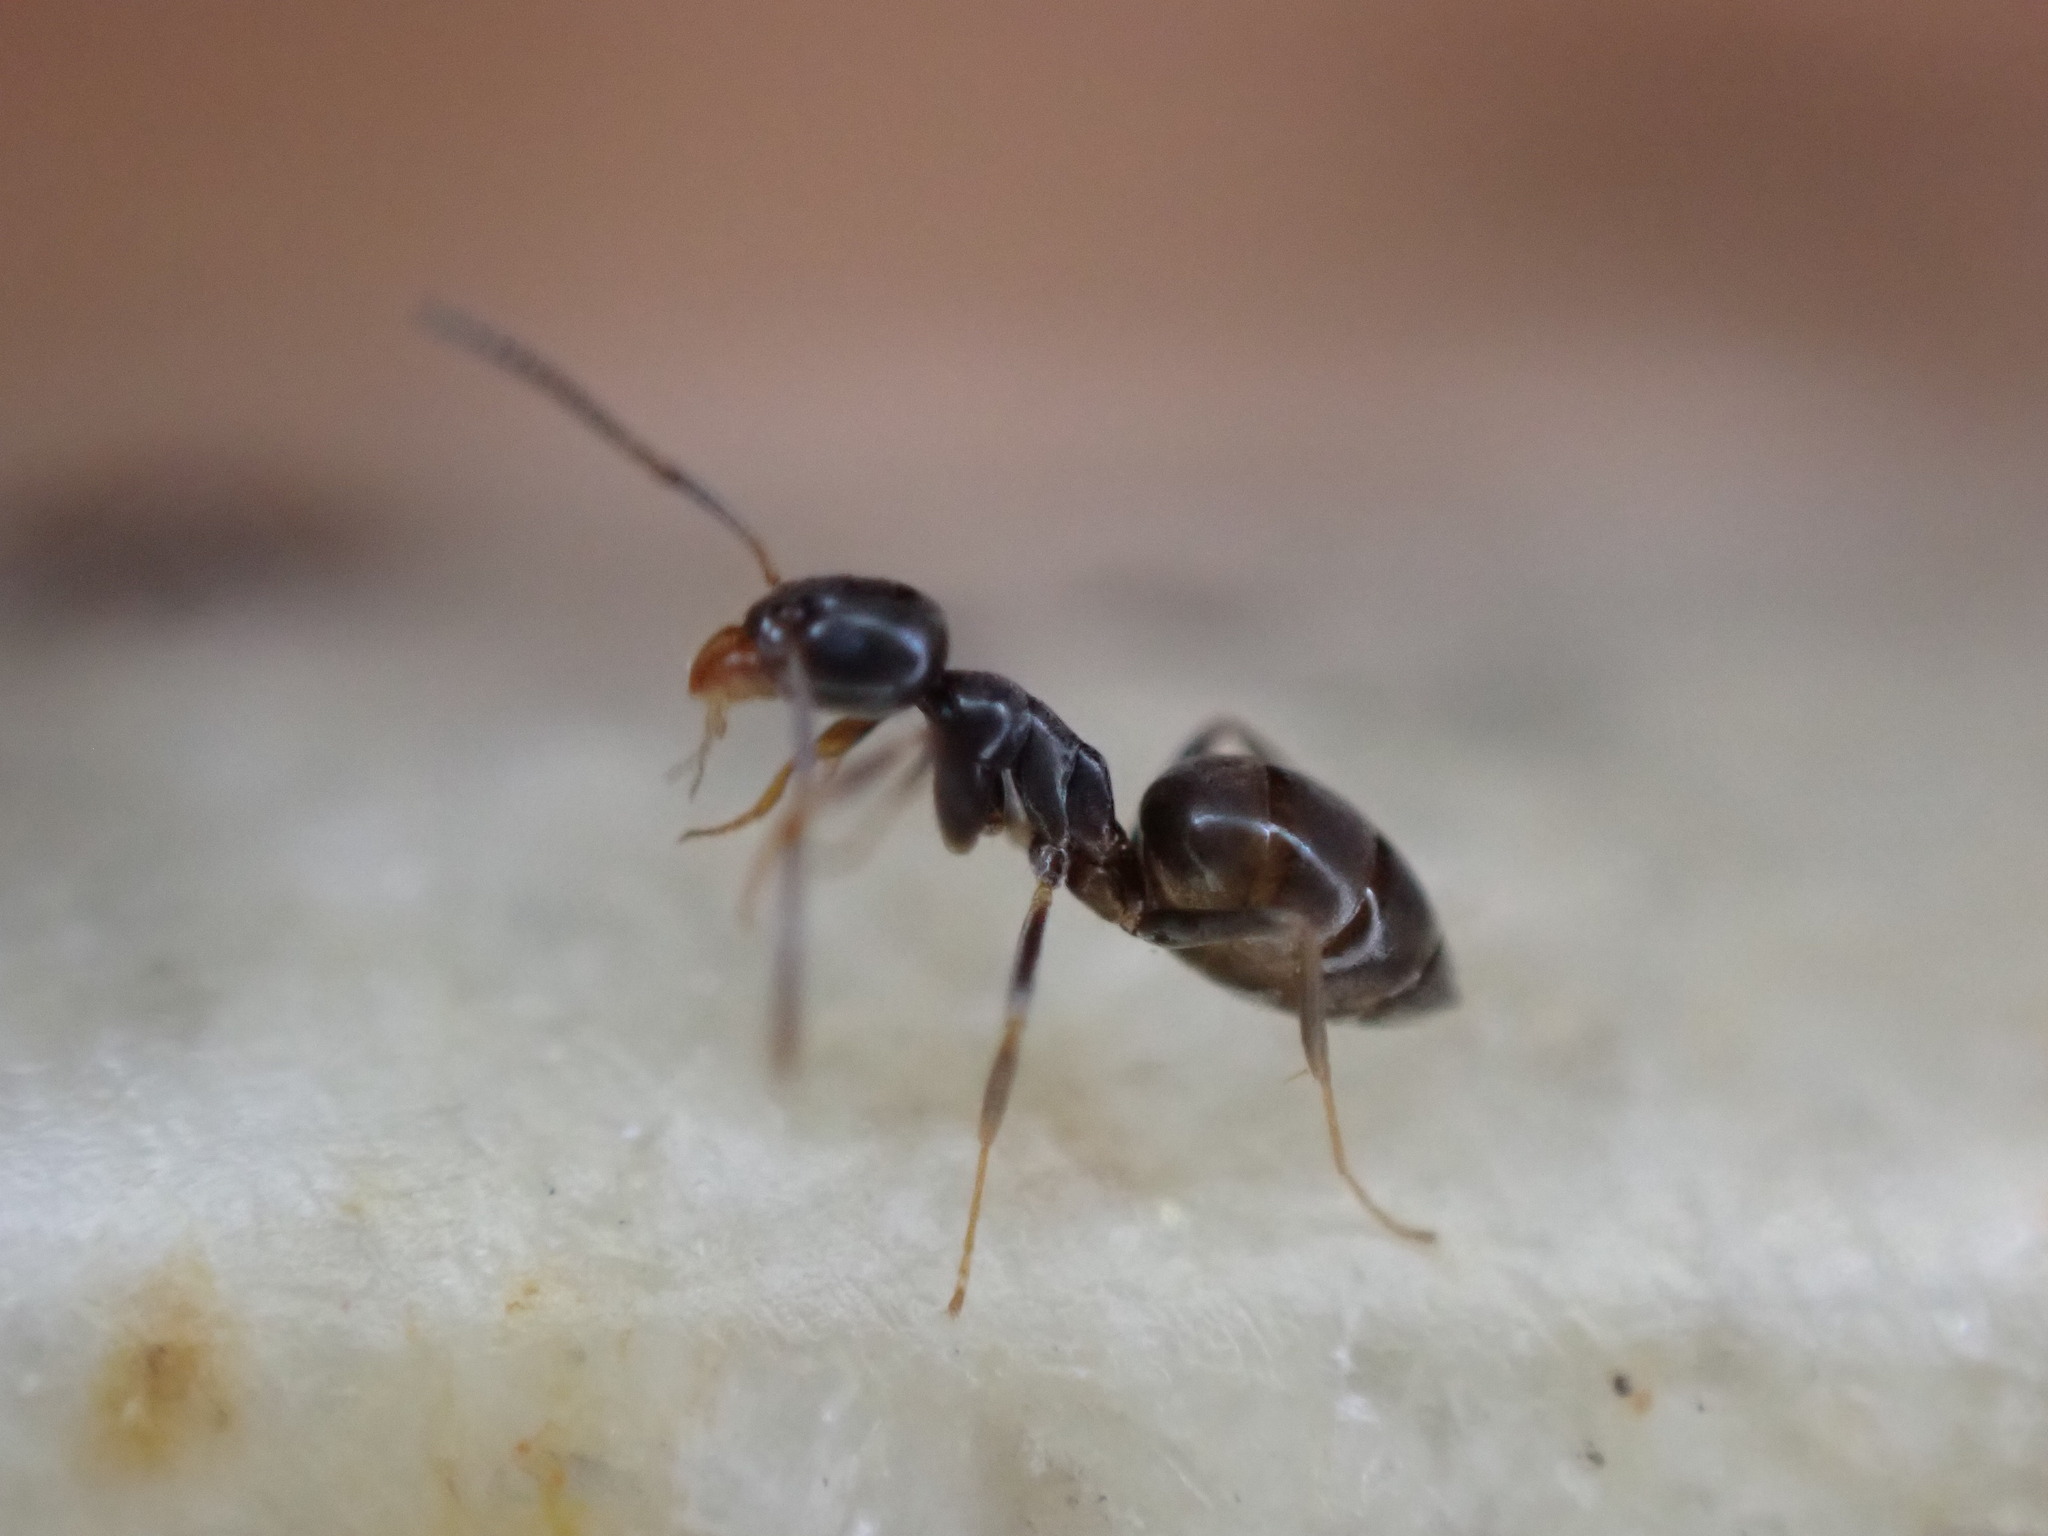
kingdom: Animalia
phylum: Arthropoda
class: Insecta
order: Hymenoptera
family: Formicidae
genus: Tapinoma
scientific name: Tapinoma sessile
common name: Odorous house ant
